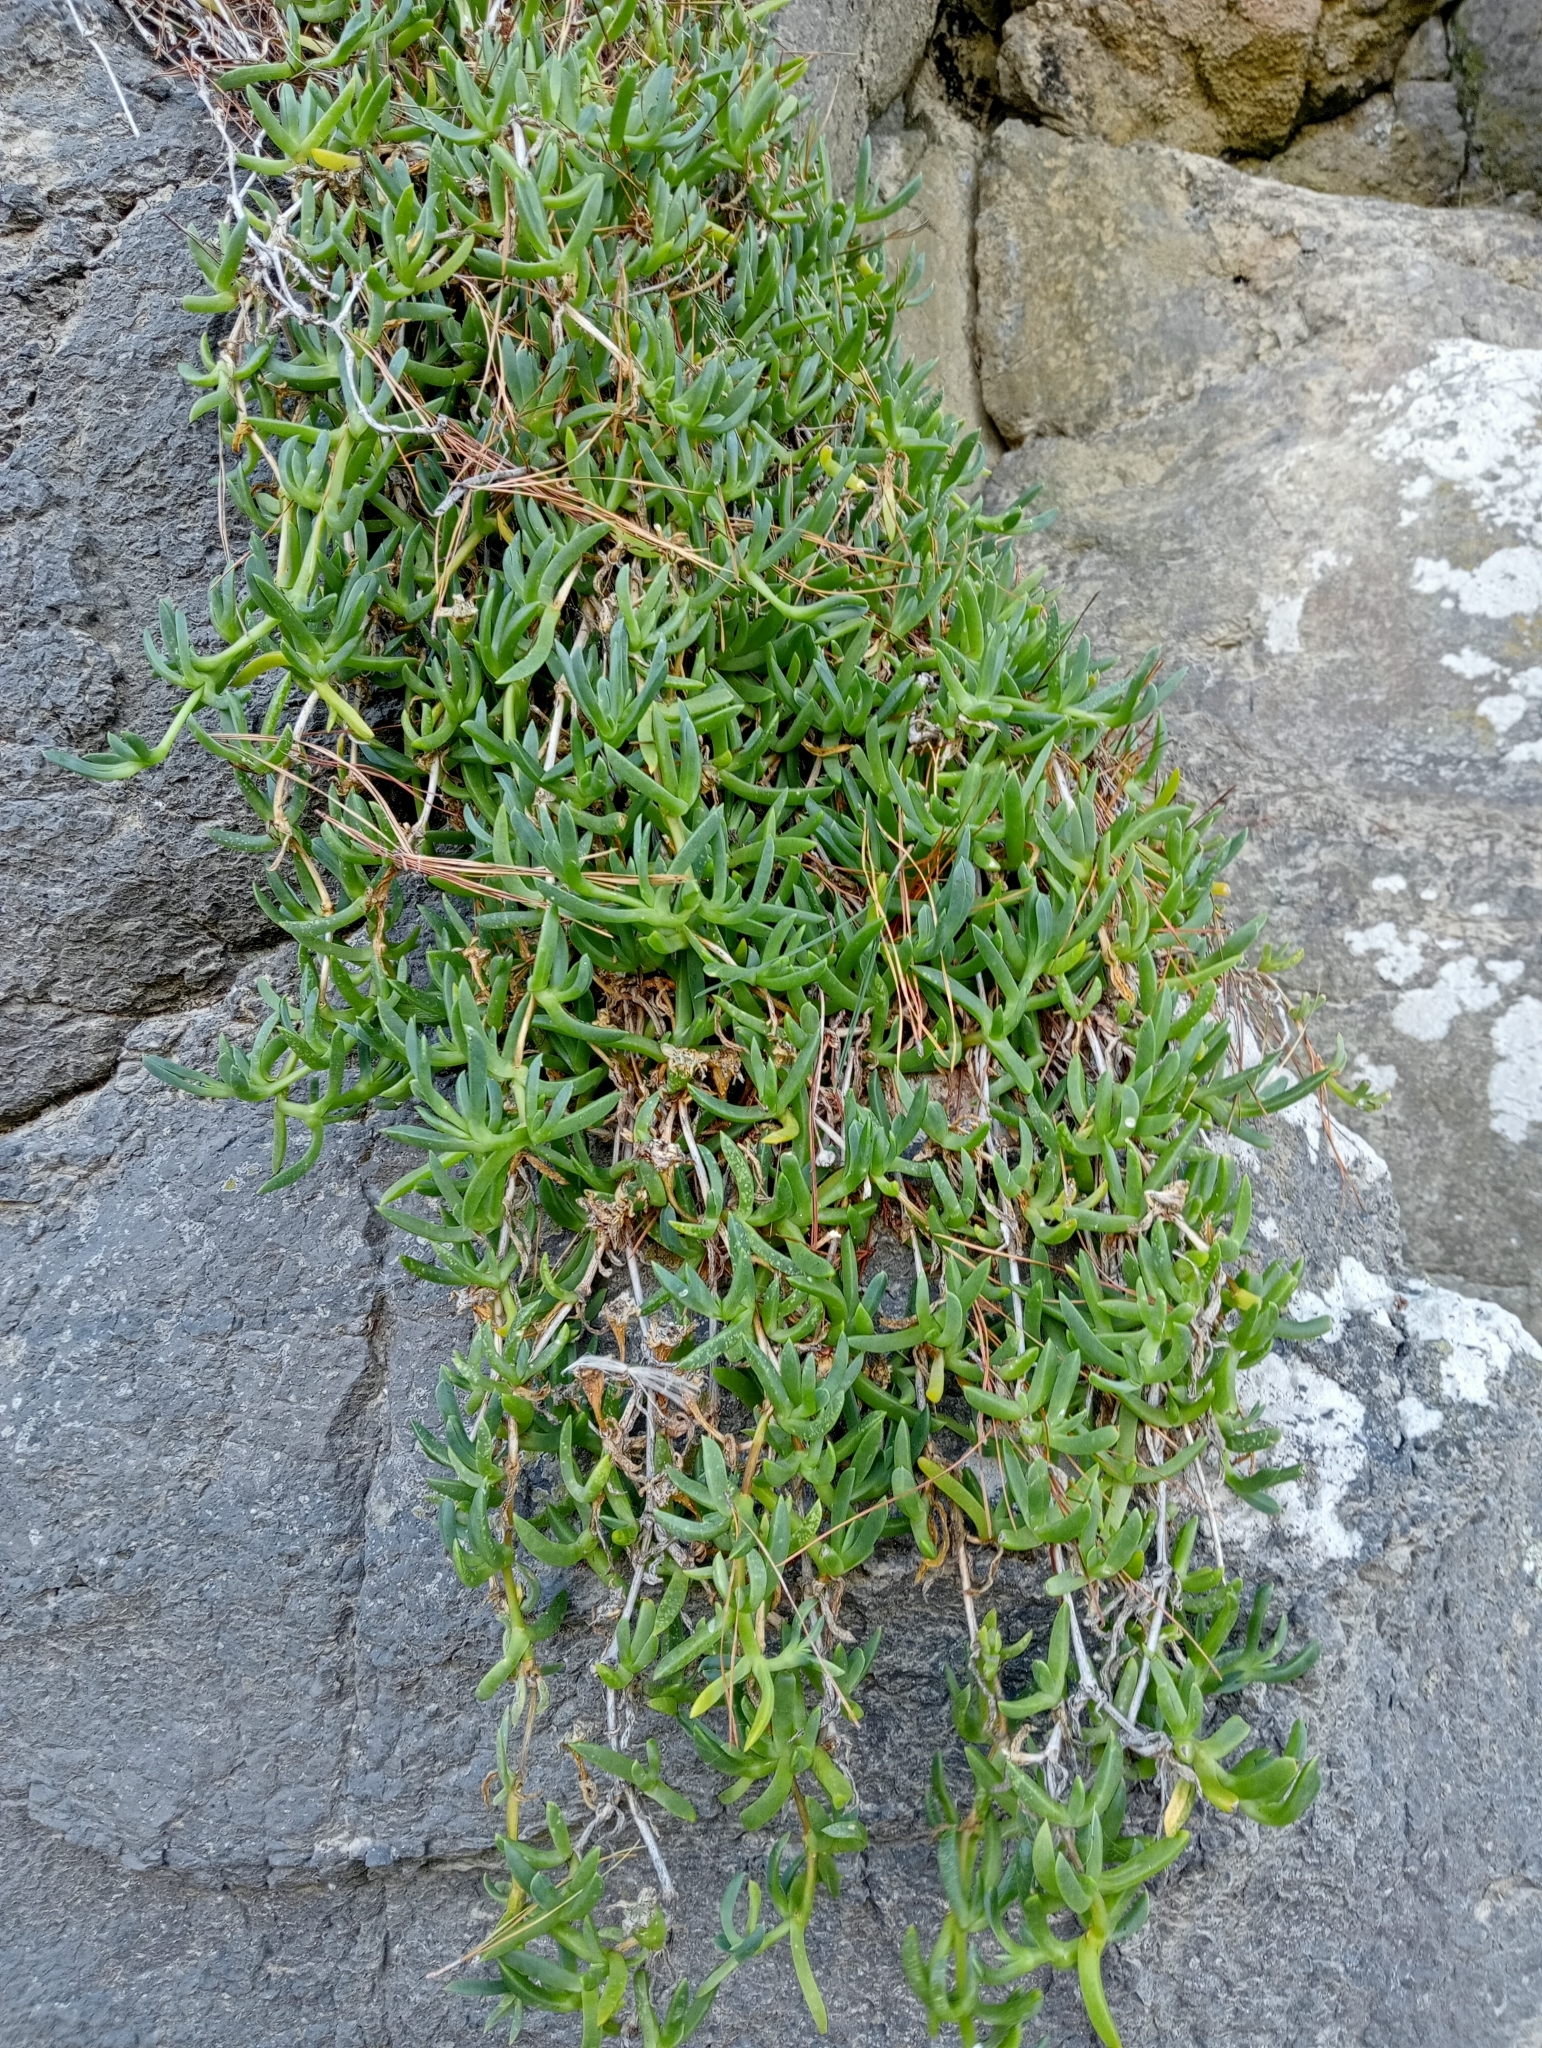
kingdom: Plantae
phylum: Tracheophyta
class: Magnoliopsida
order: Caryophyllales
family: Aizoaceae
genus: Disphyma
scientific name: Disphyma australe
